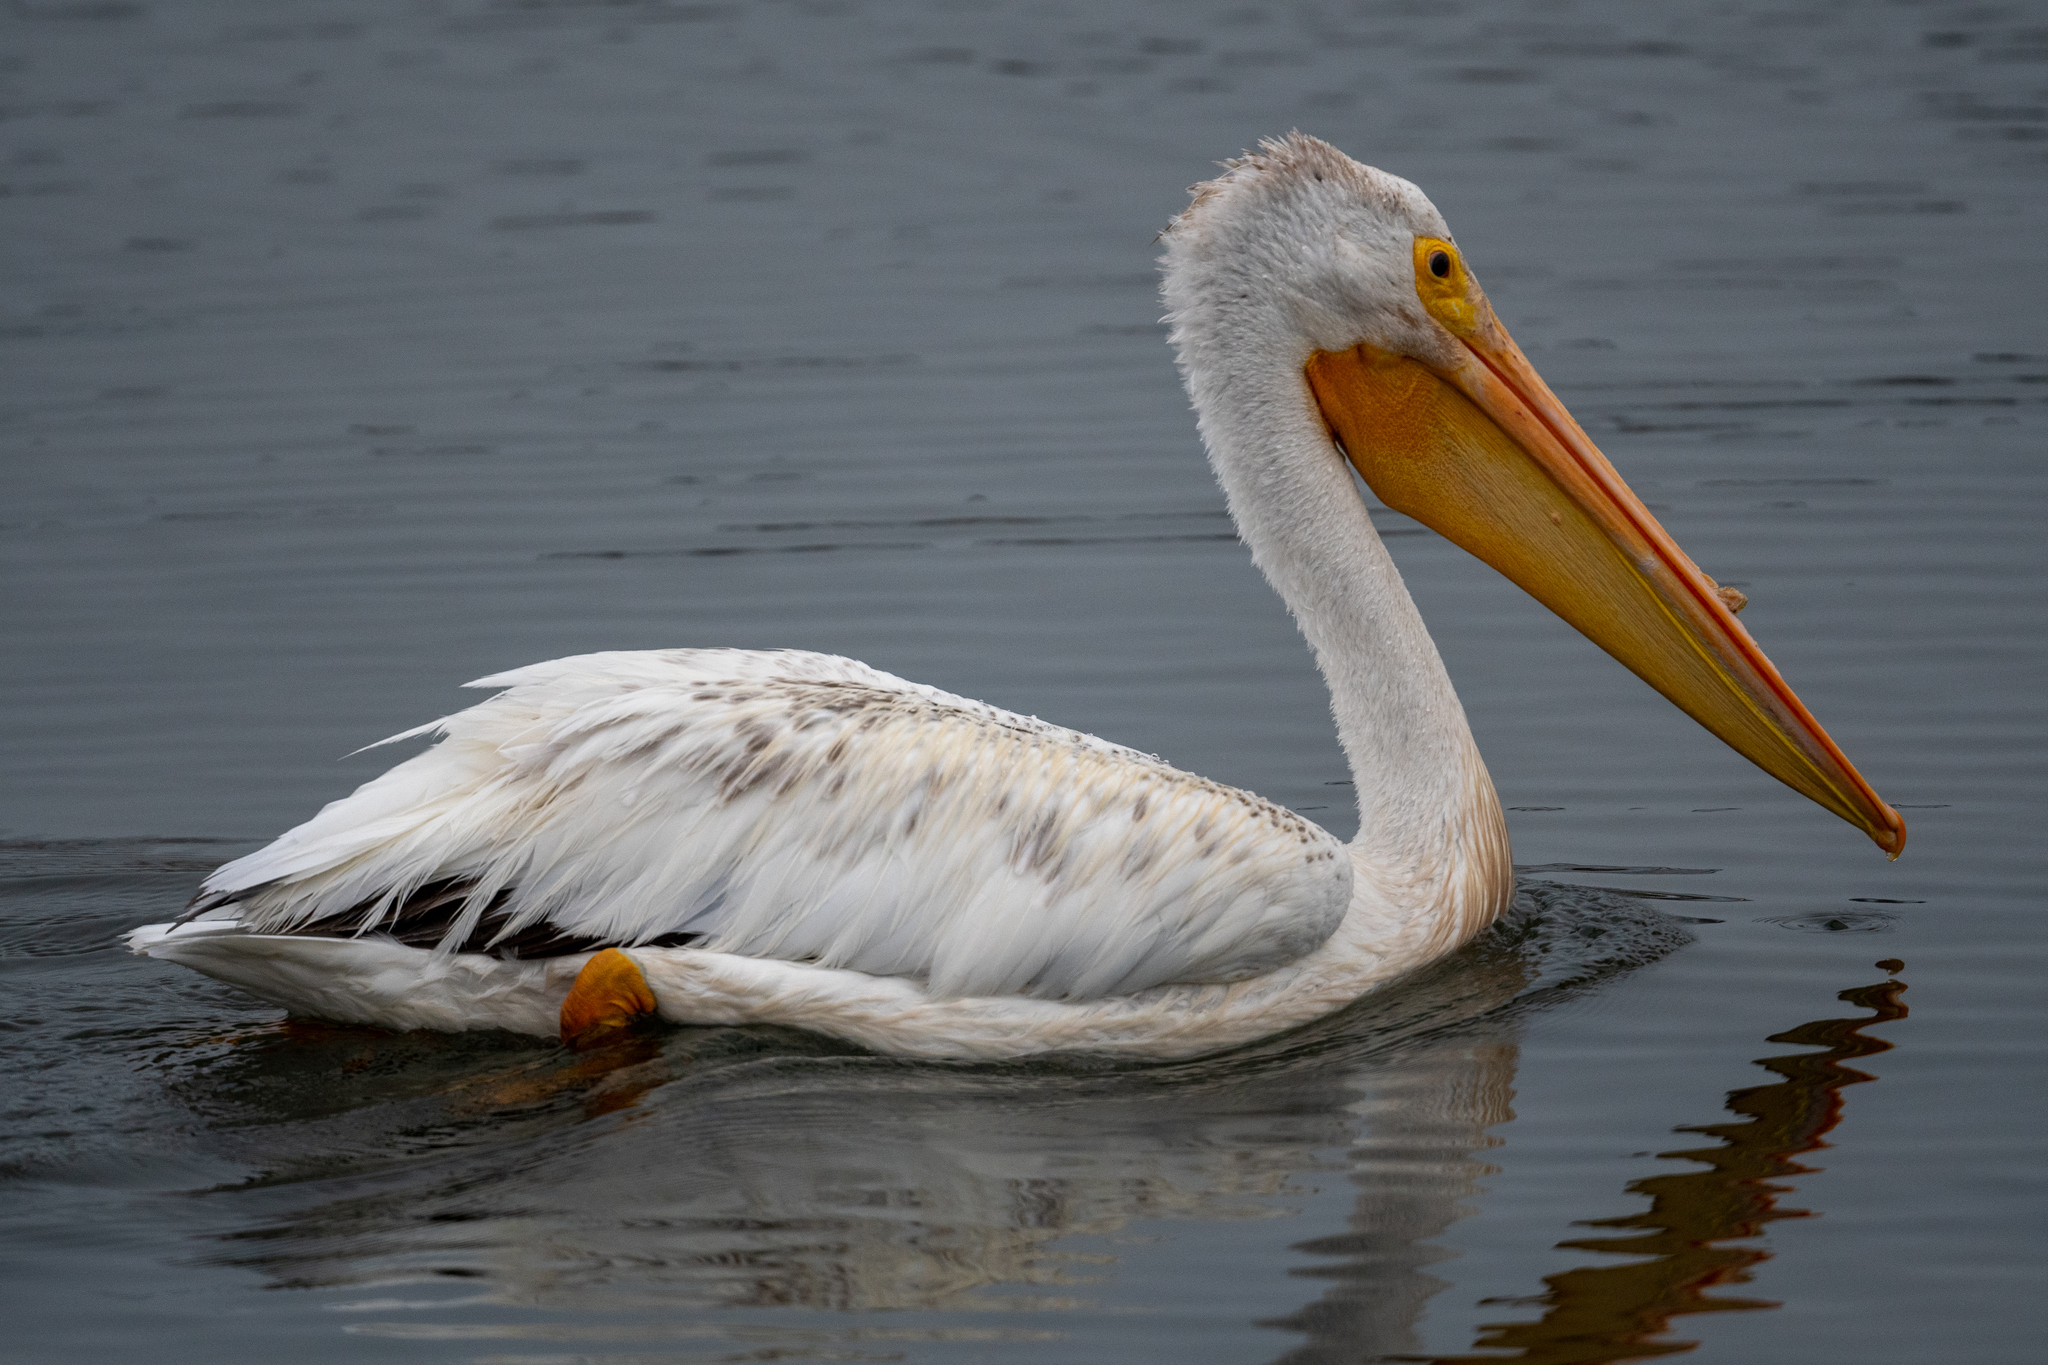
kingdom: Animalia
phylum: Chordata
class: Aves
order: Pelecaniformes
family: Pelecanidae
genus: Pelecanus
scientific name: Pelecanus erythrorhynchos
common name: American white pelican
